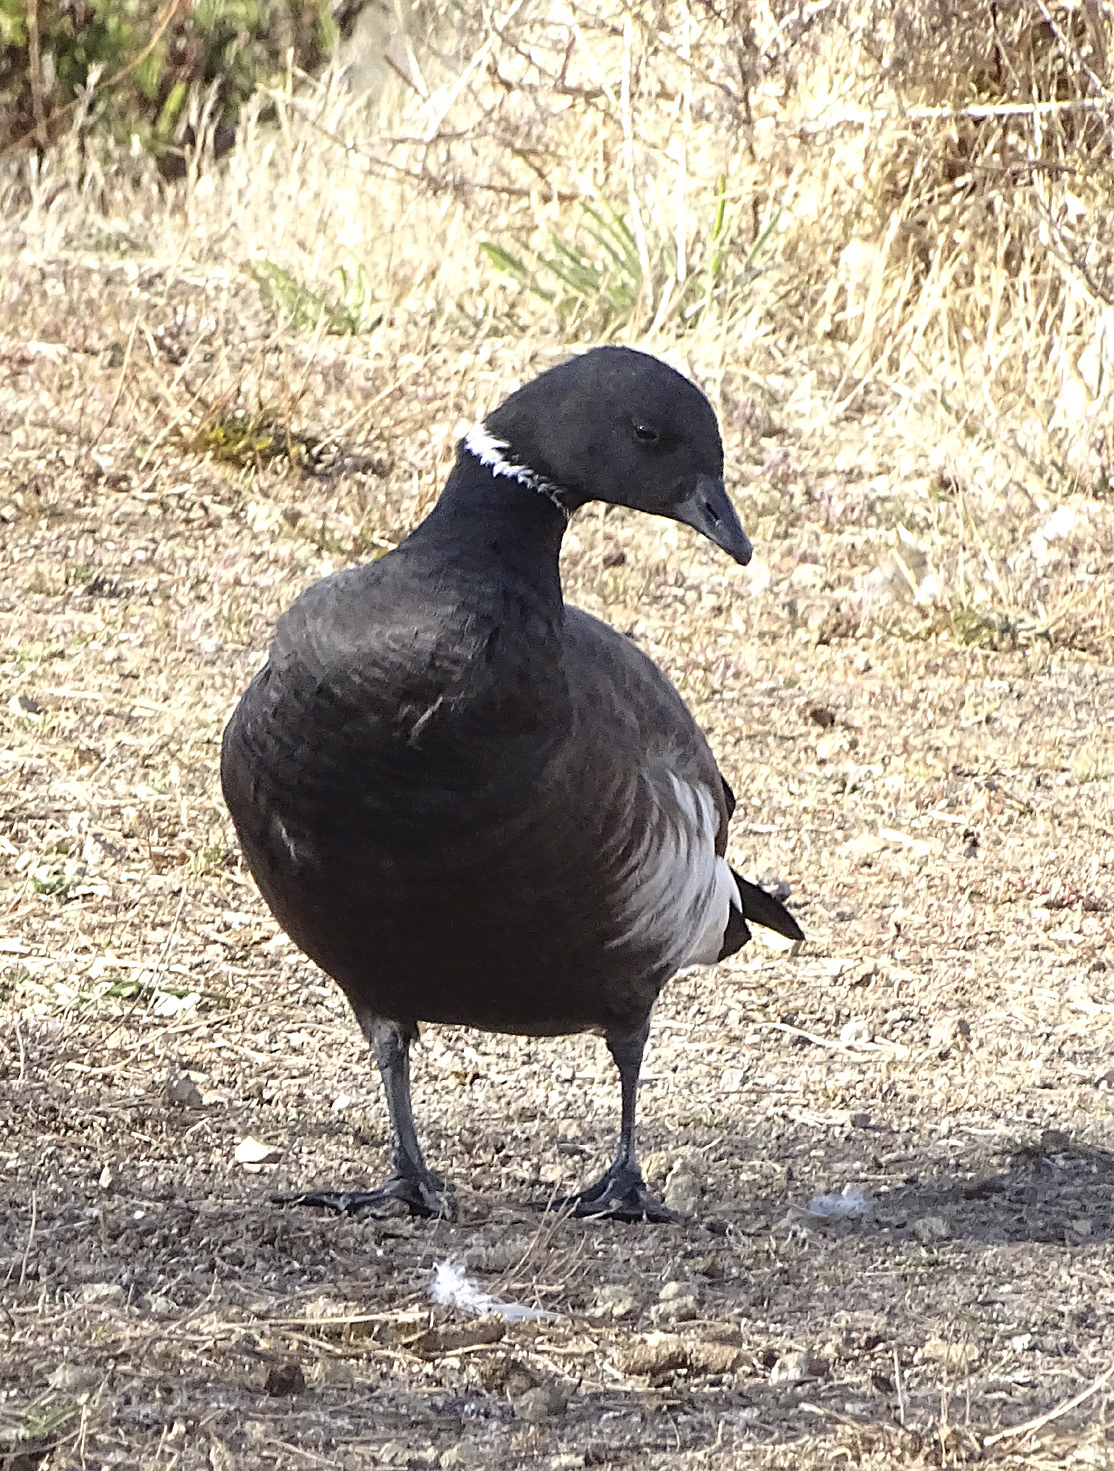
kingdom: Animalia
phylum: Chordata
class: Aves
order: Anseriformes
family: Anatidae
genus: Branta
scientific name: Branta bernicla
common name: Brant goose
